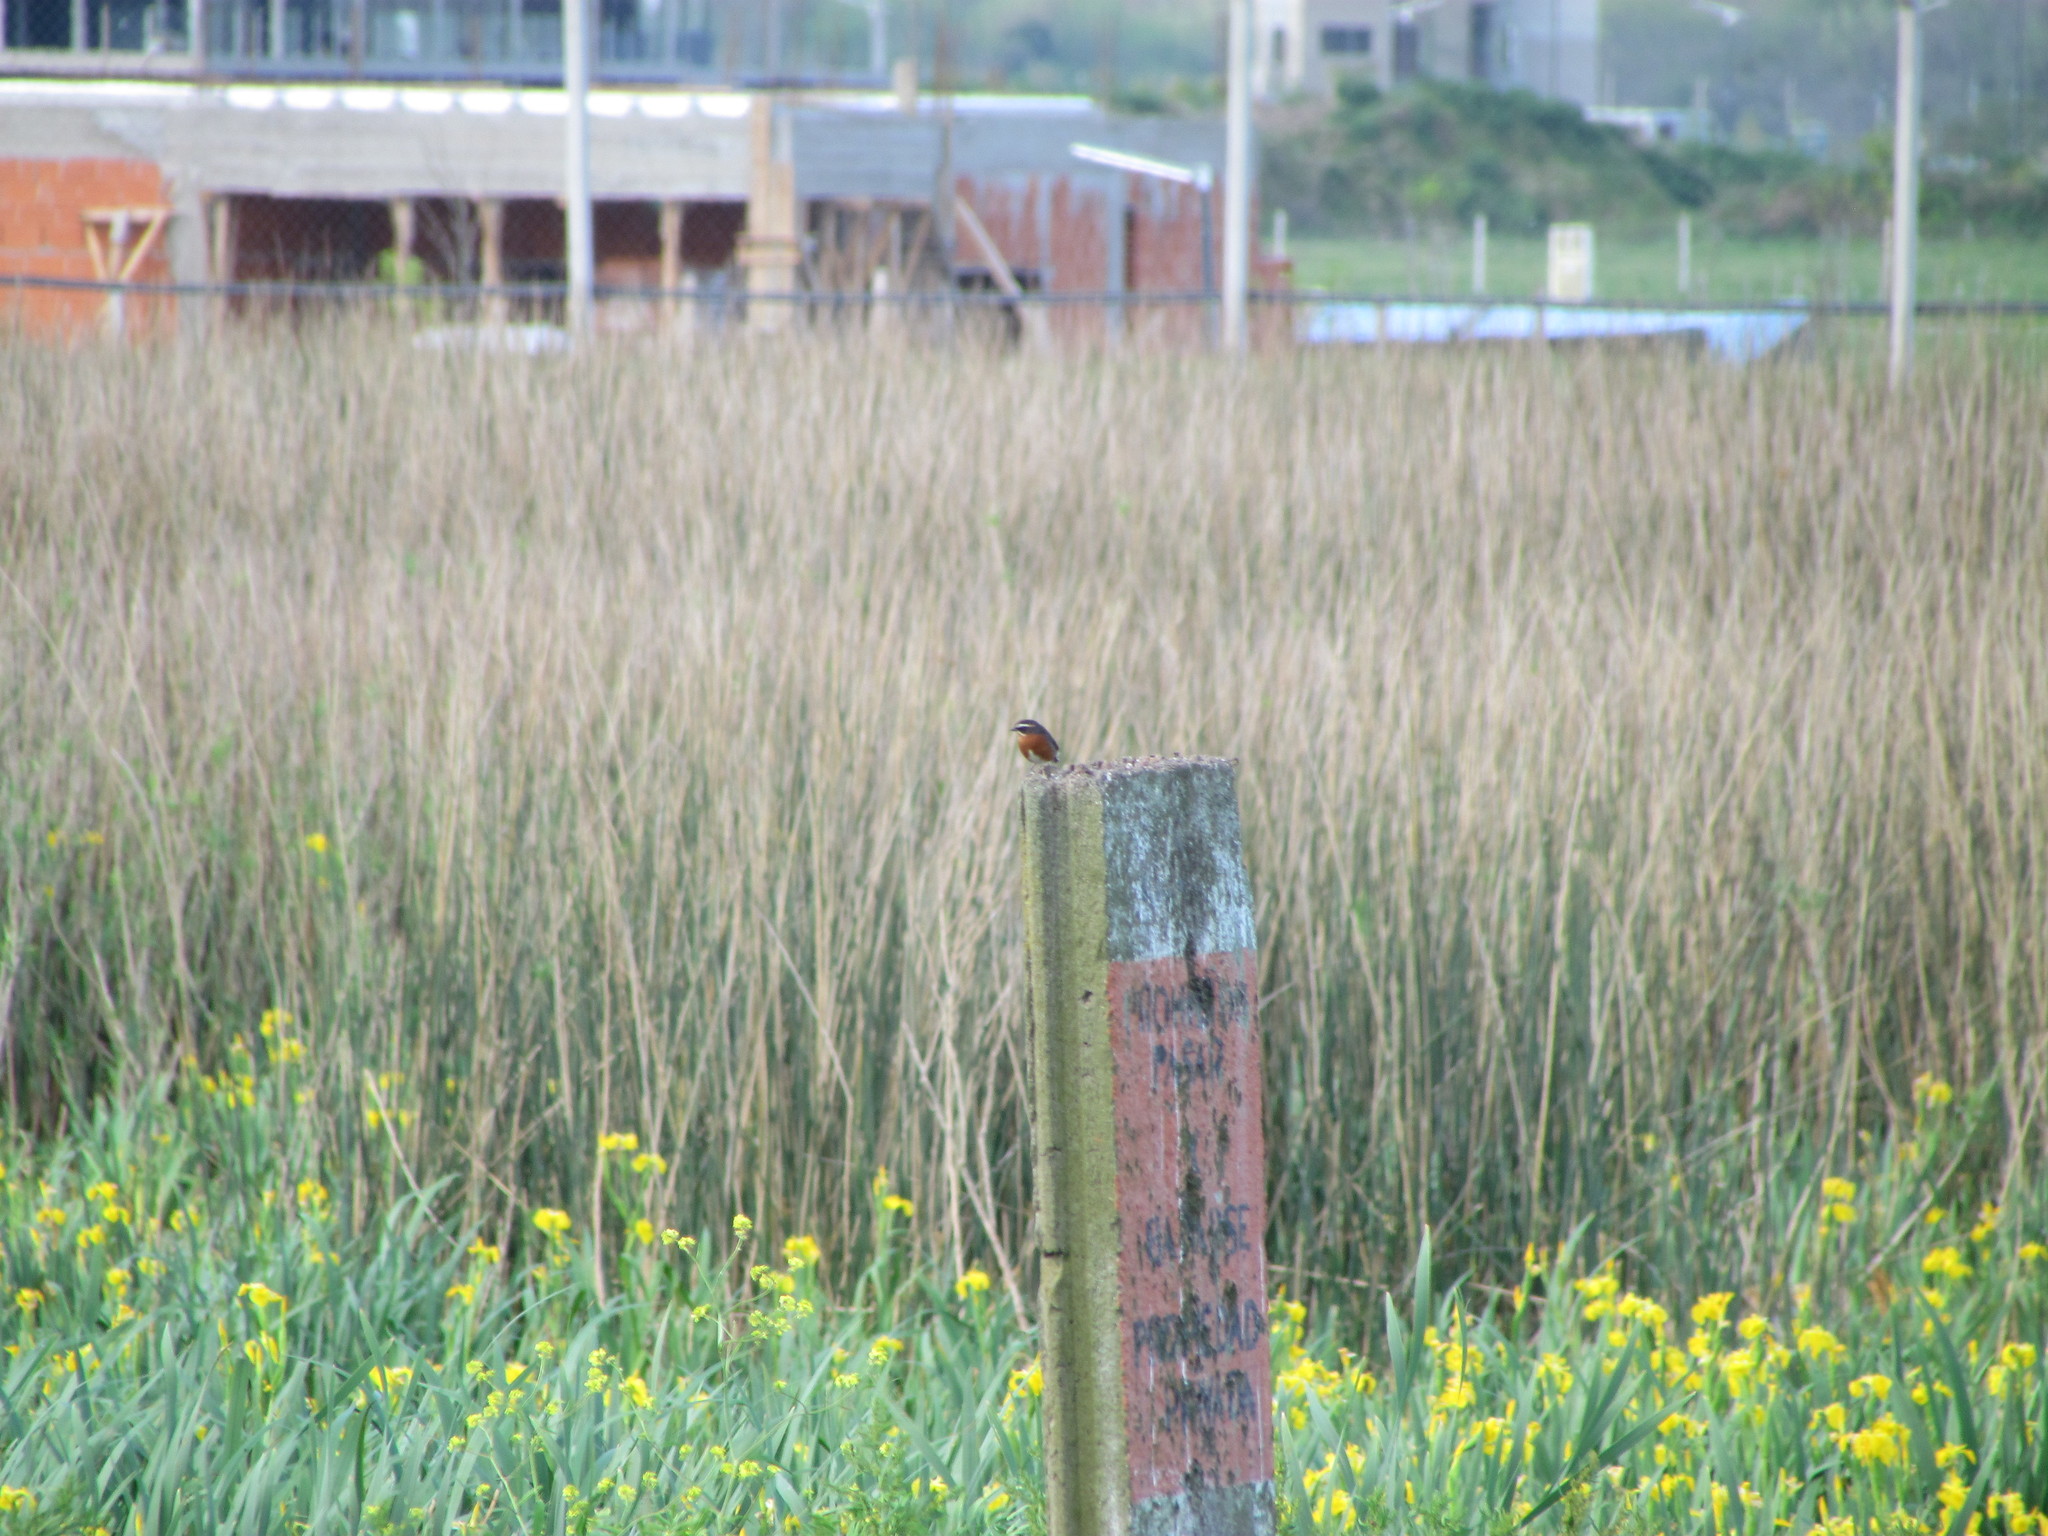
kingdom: Animalia
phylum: Chordata
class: Aves
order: Passeriformes
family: Thraupidae
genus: Poospiza
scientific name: Poospiza nigrorufa
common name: Black-and-rufous warbling finch
